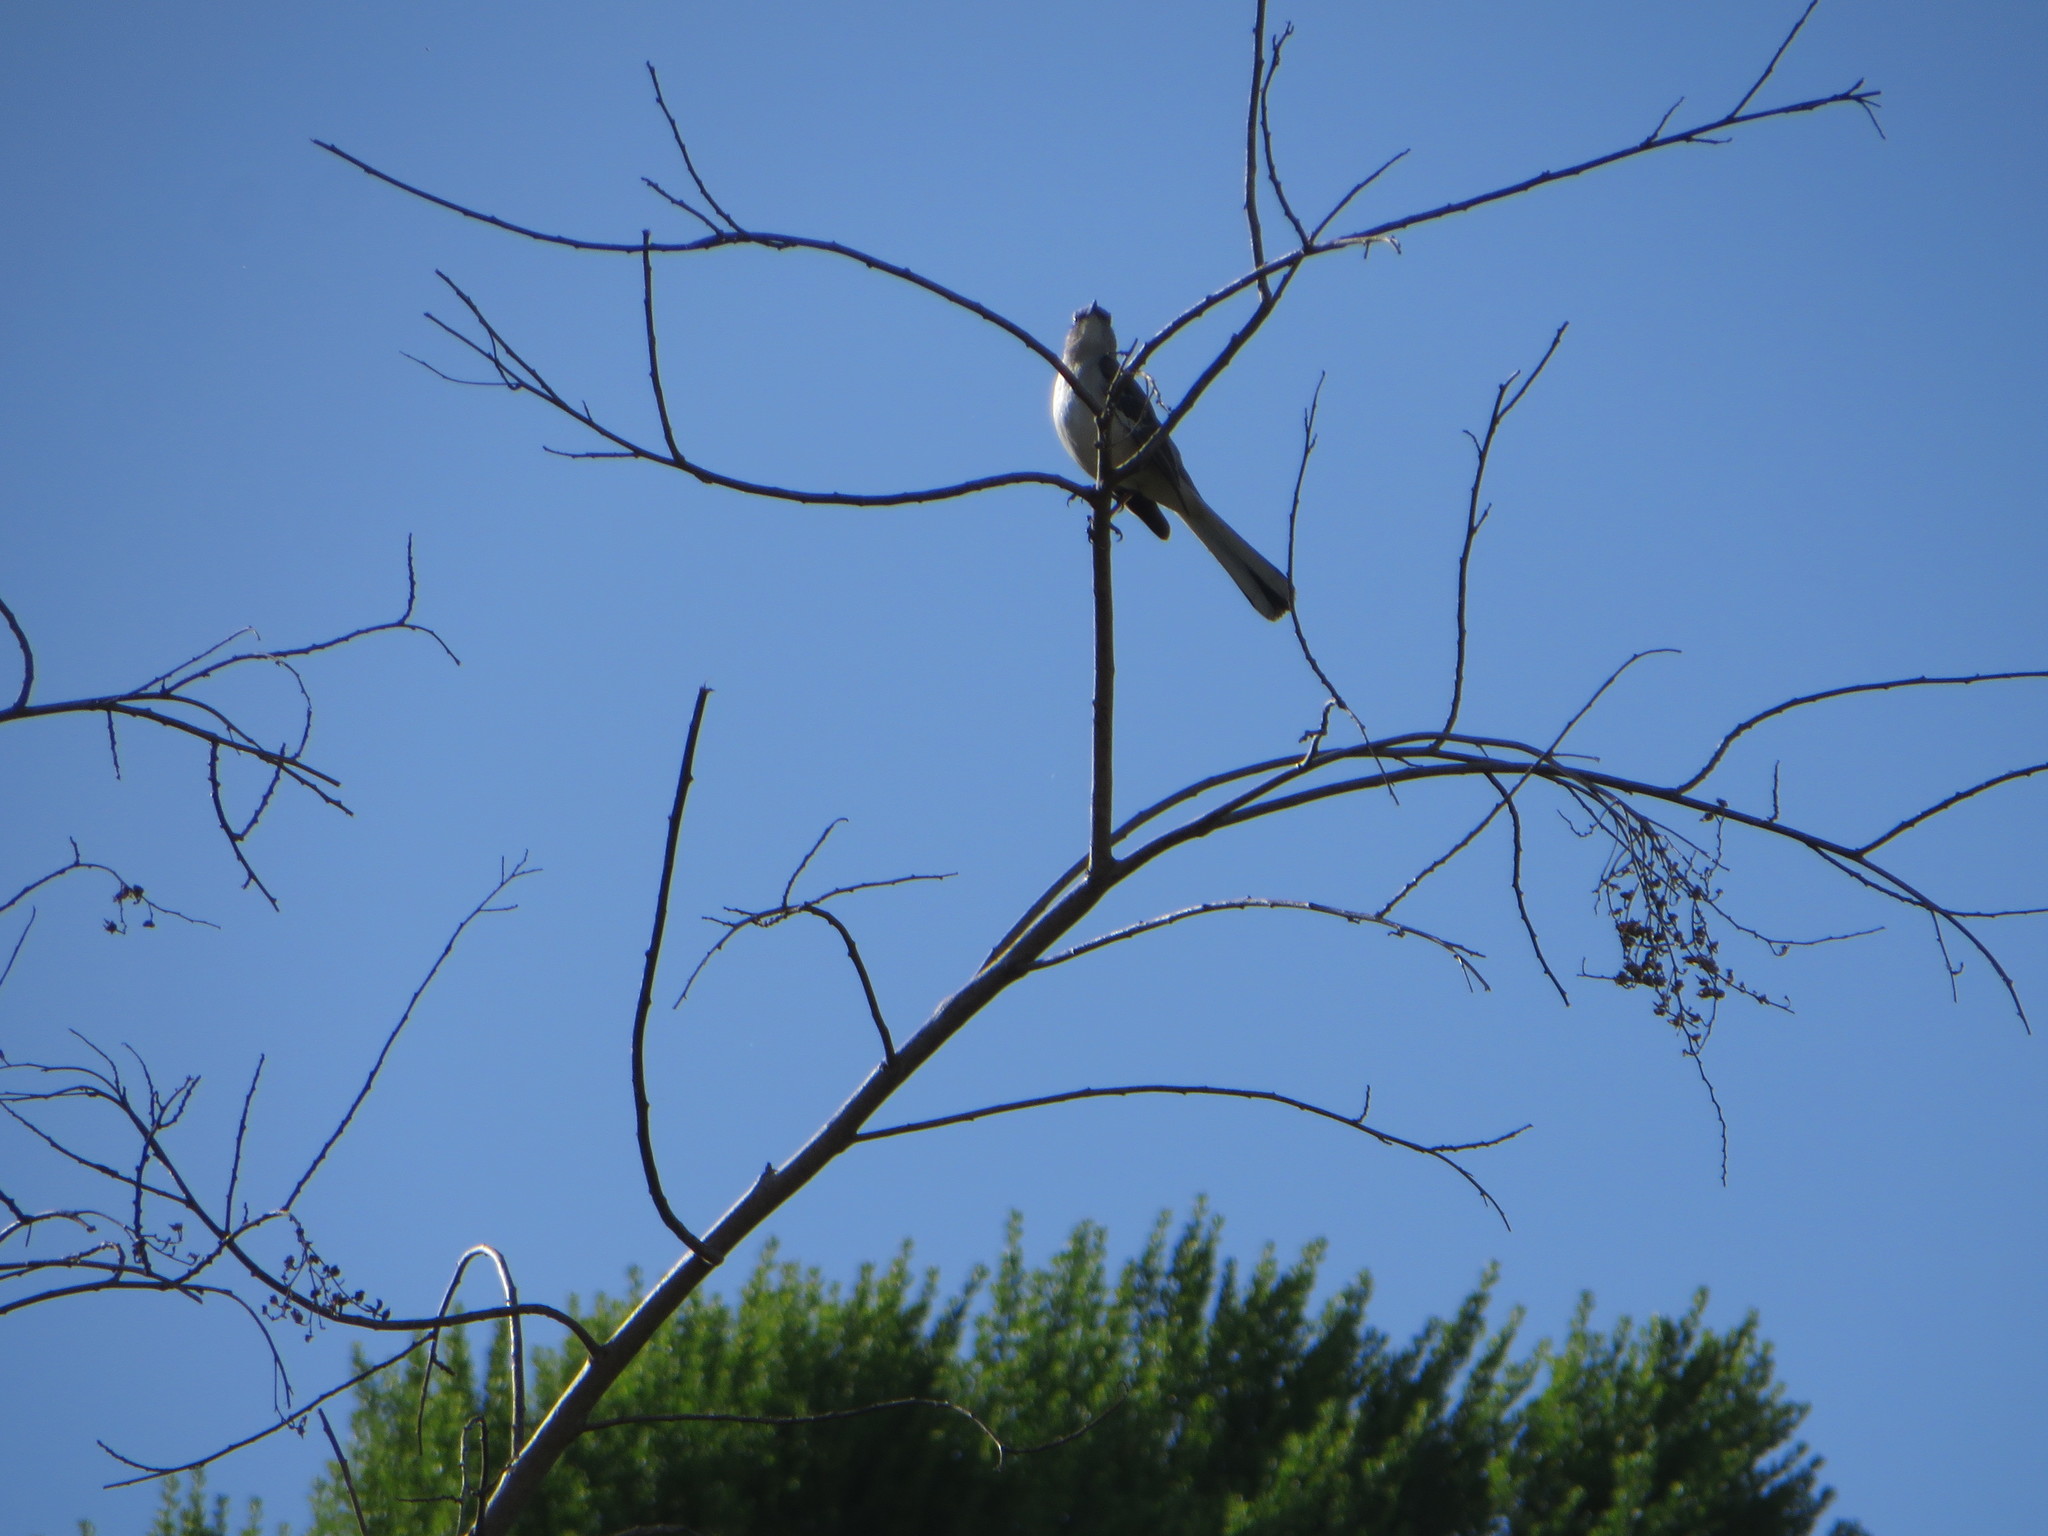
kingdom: Animalia
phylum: Chordata
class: Aves
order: Passeriformes
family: Mimidae
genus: Mimus
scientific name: Mimus polyglottos
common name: Northern mockingbird
